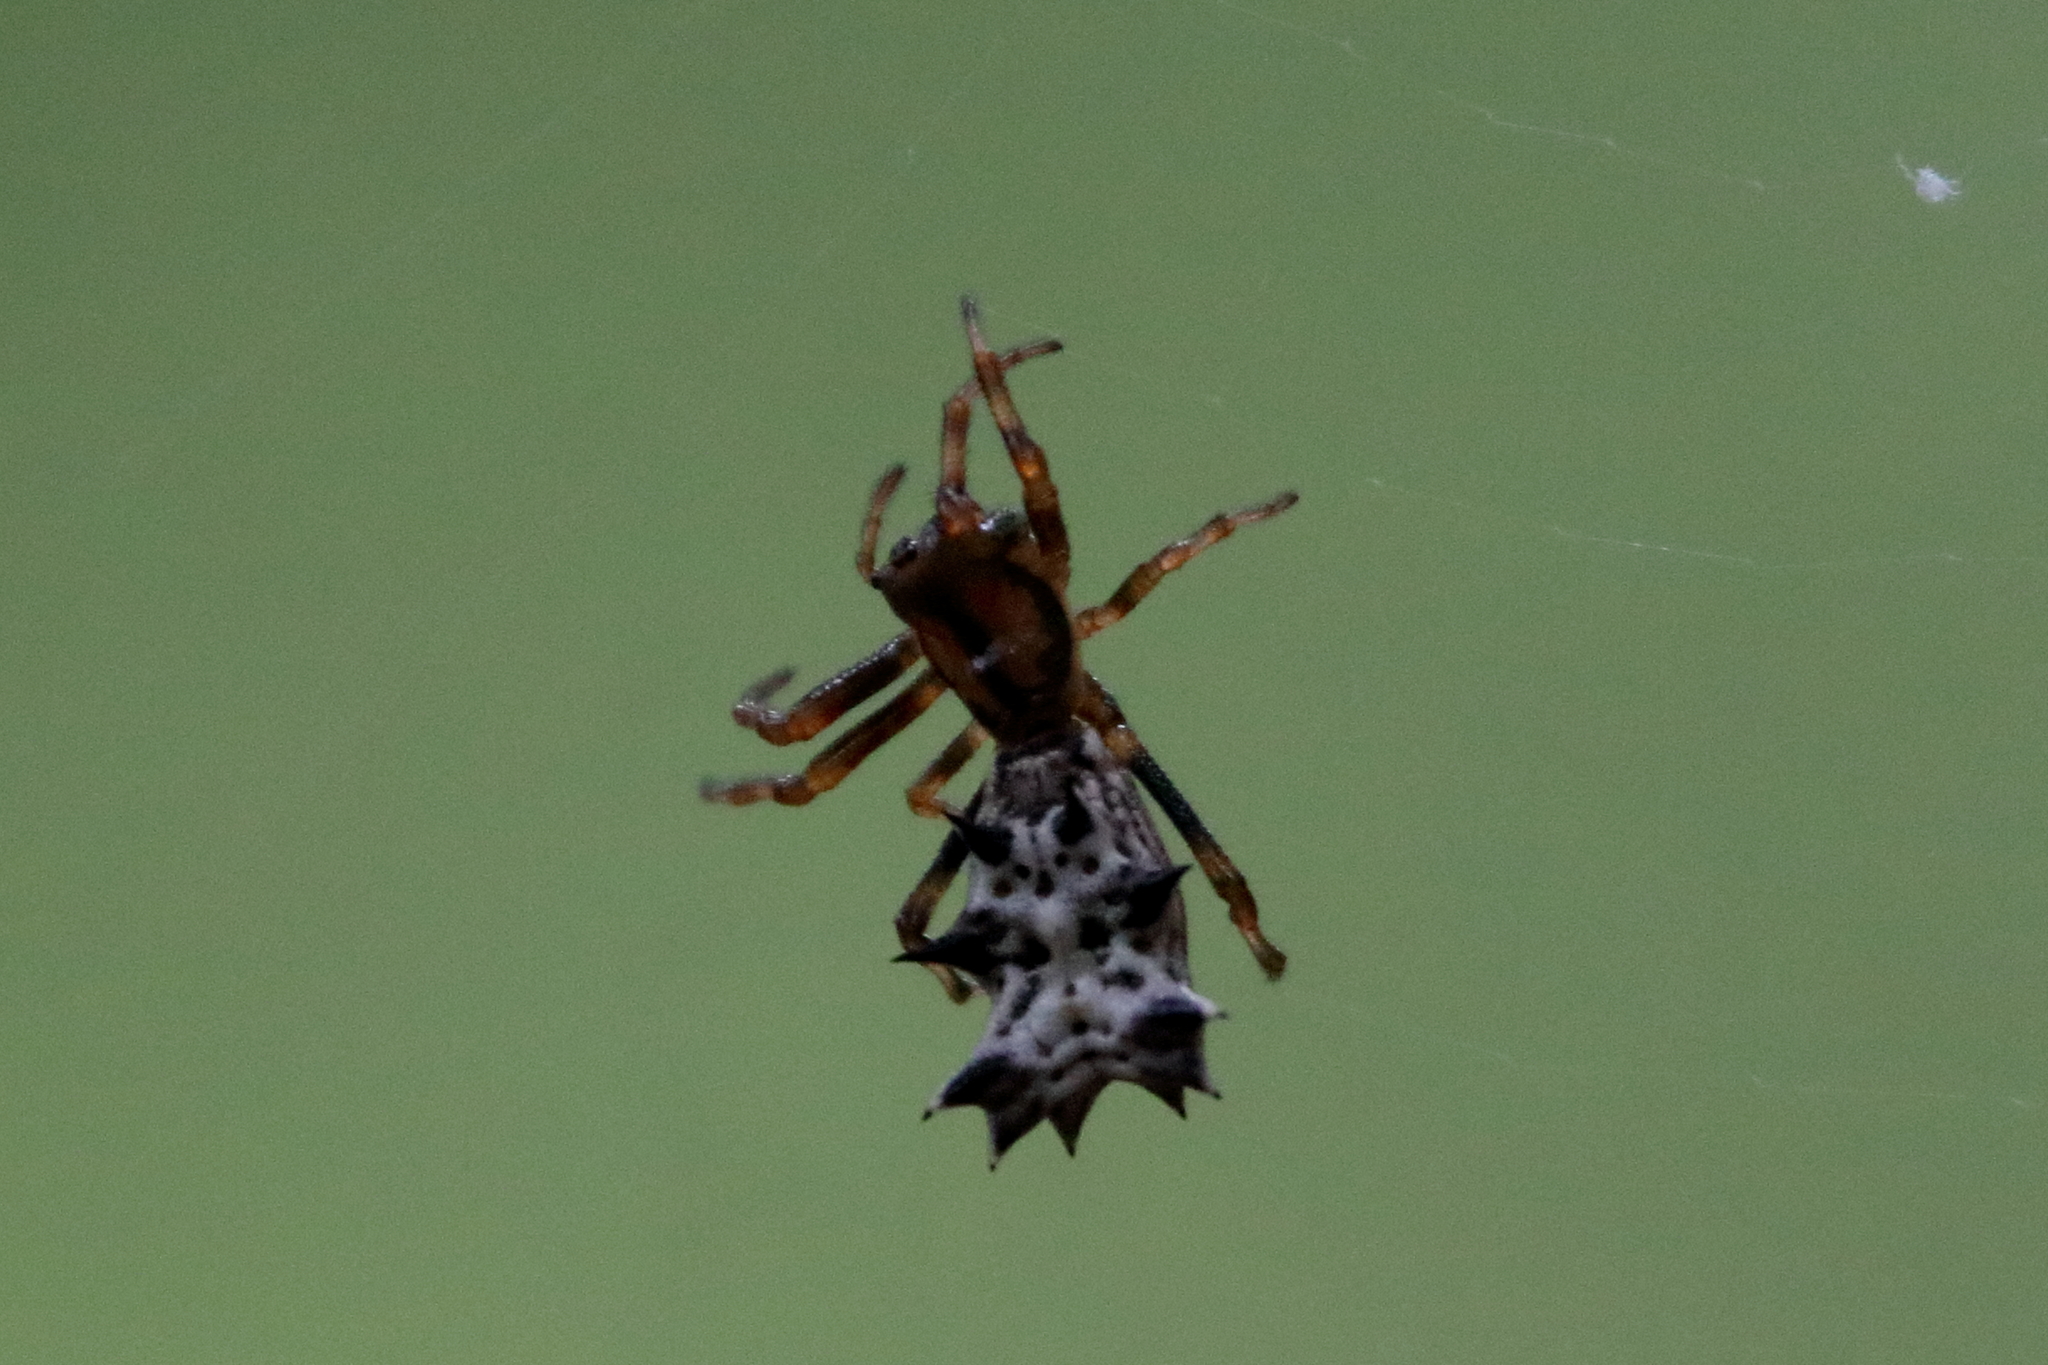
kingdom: Animalia
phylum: Arthropoda
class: Arachnida
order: Araneae
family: Araneidae
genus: Micrathena
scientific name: Micrathena gracilis
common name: Orb weavers
